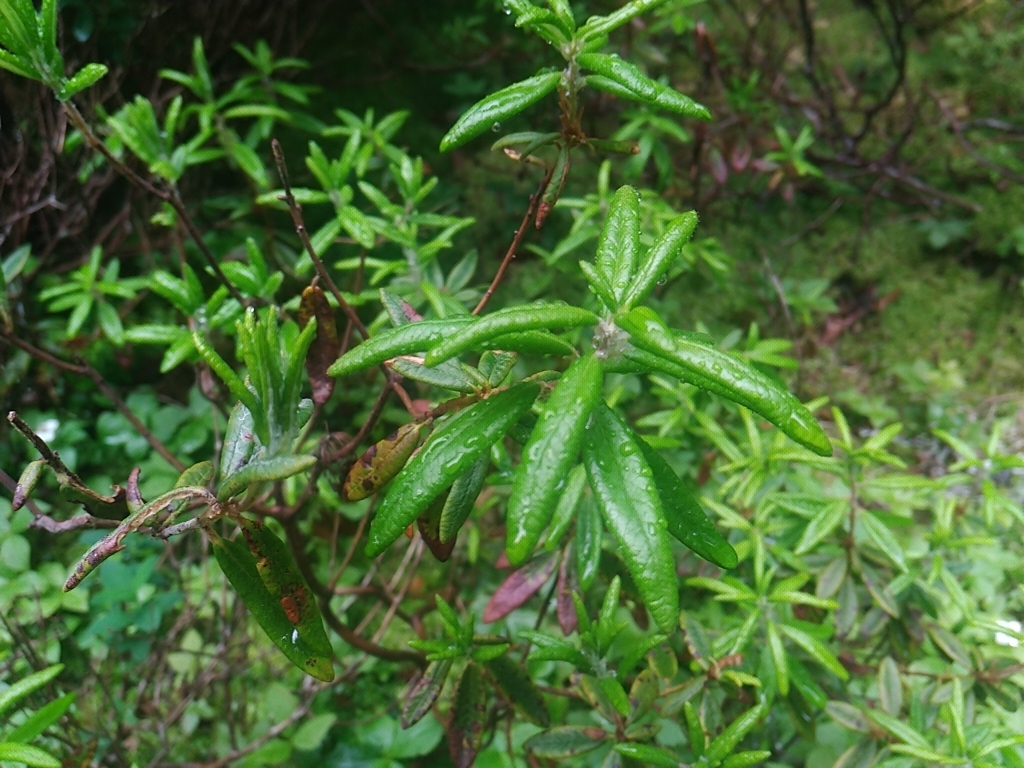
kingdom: Plantae
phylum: Tracheophyta
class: Magnoliopsida
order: Ericales
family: Ericaceae
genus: Rhododendron
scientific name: Rhododendron groenlandicum
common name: Bog labrador tea
